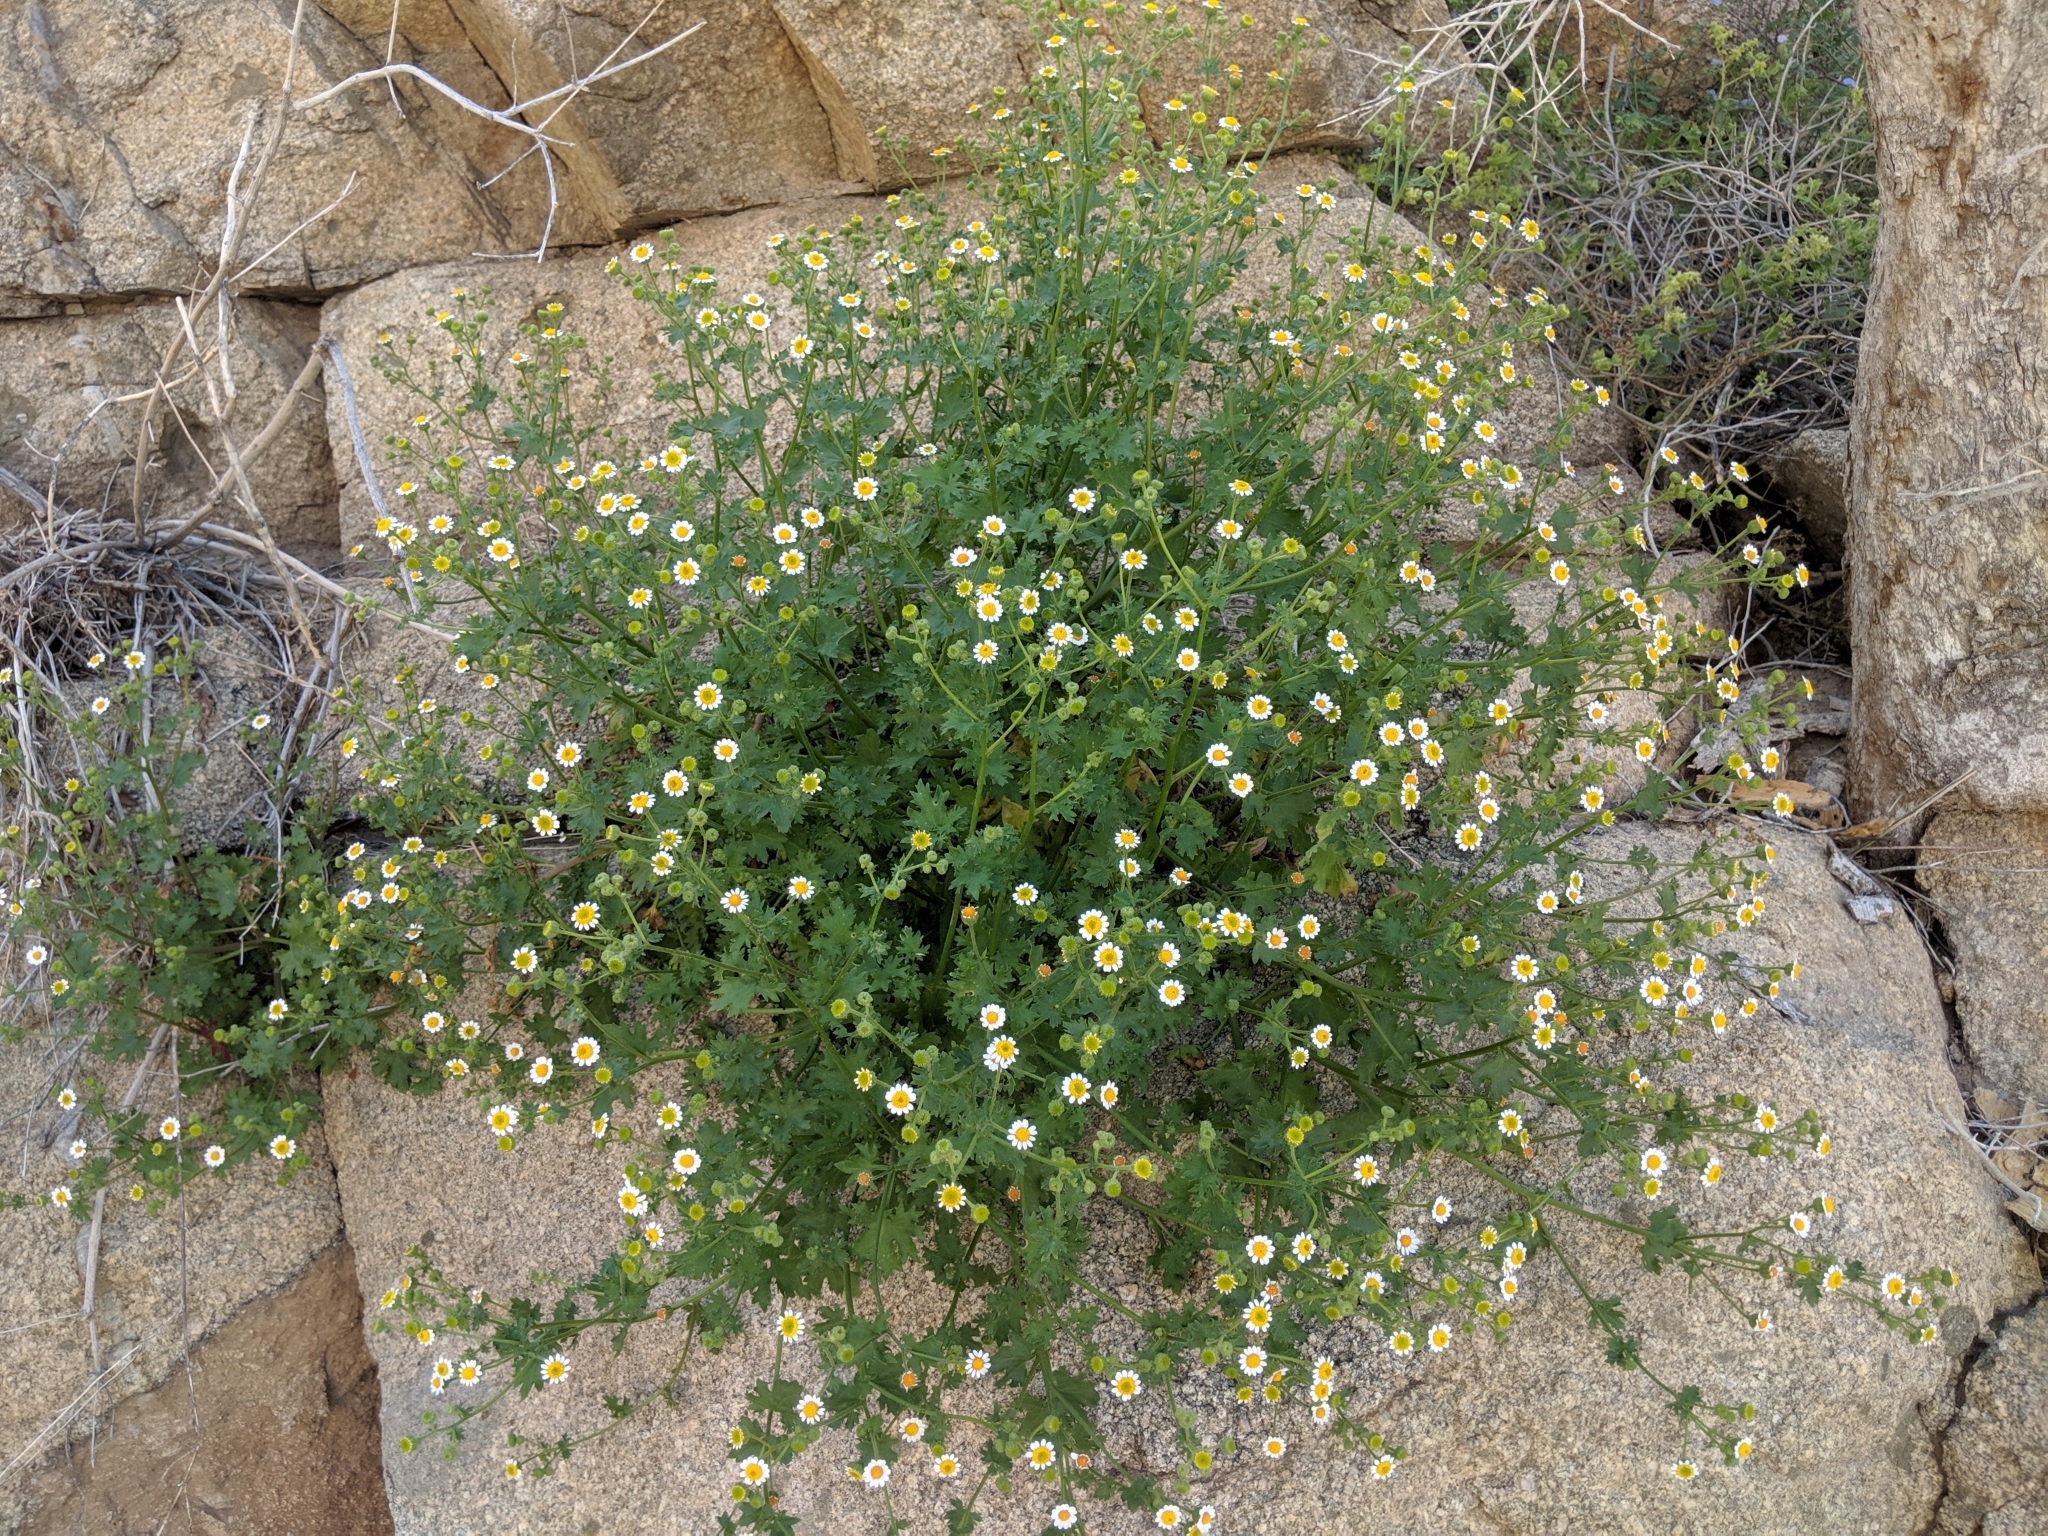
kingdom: Plantae
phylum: Tracheophyta
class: Magnoliopsida
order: Asterales
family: Asteraceae
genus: Laphamia
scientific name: Laphamia emoryi
